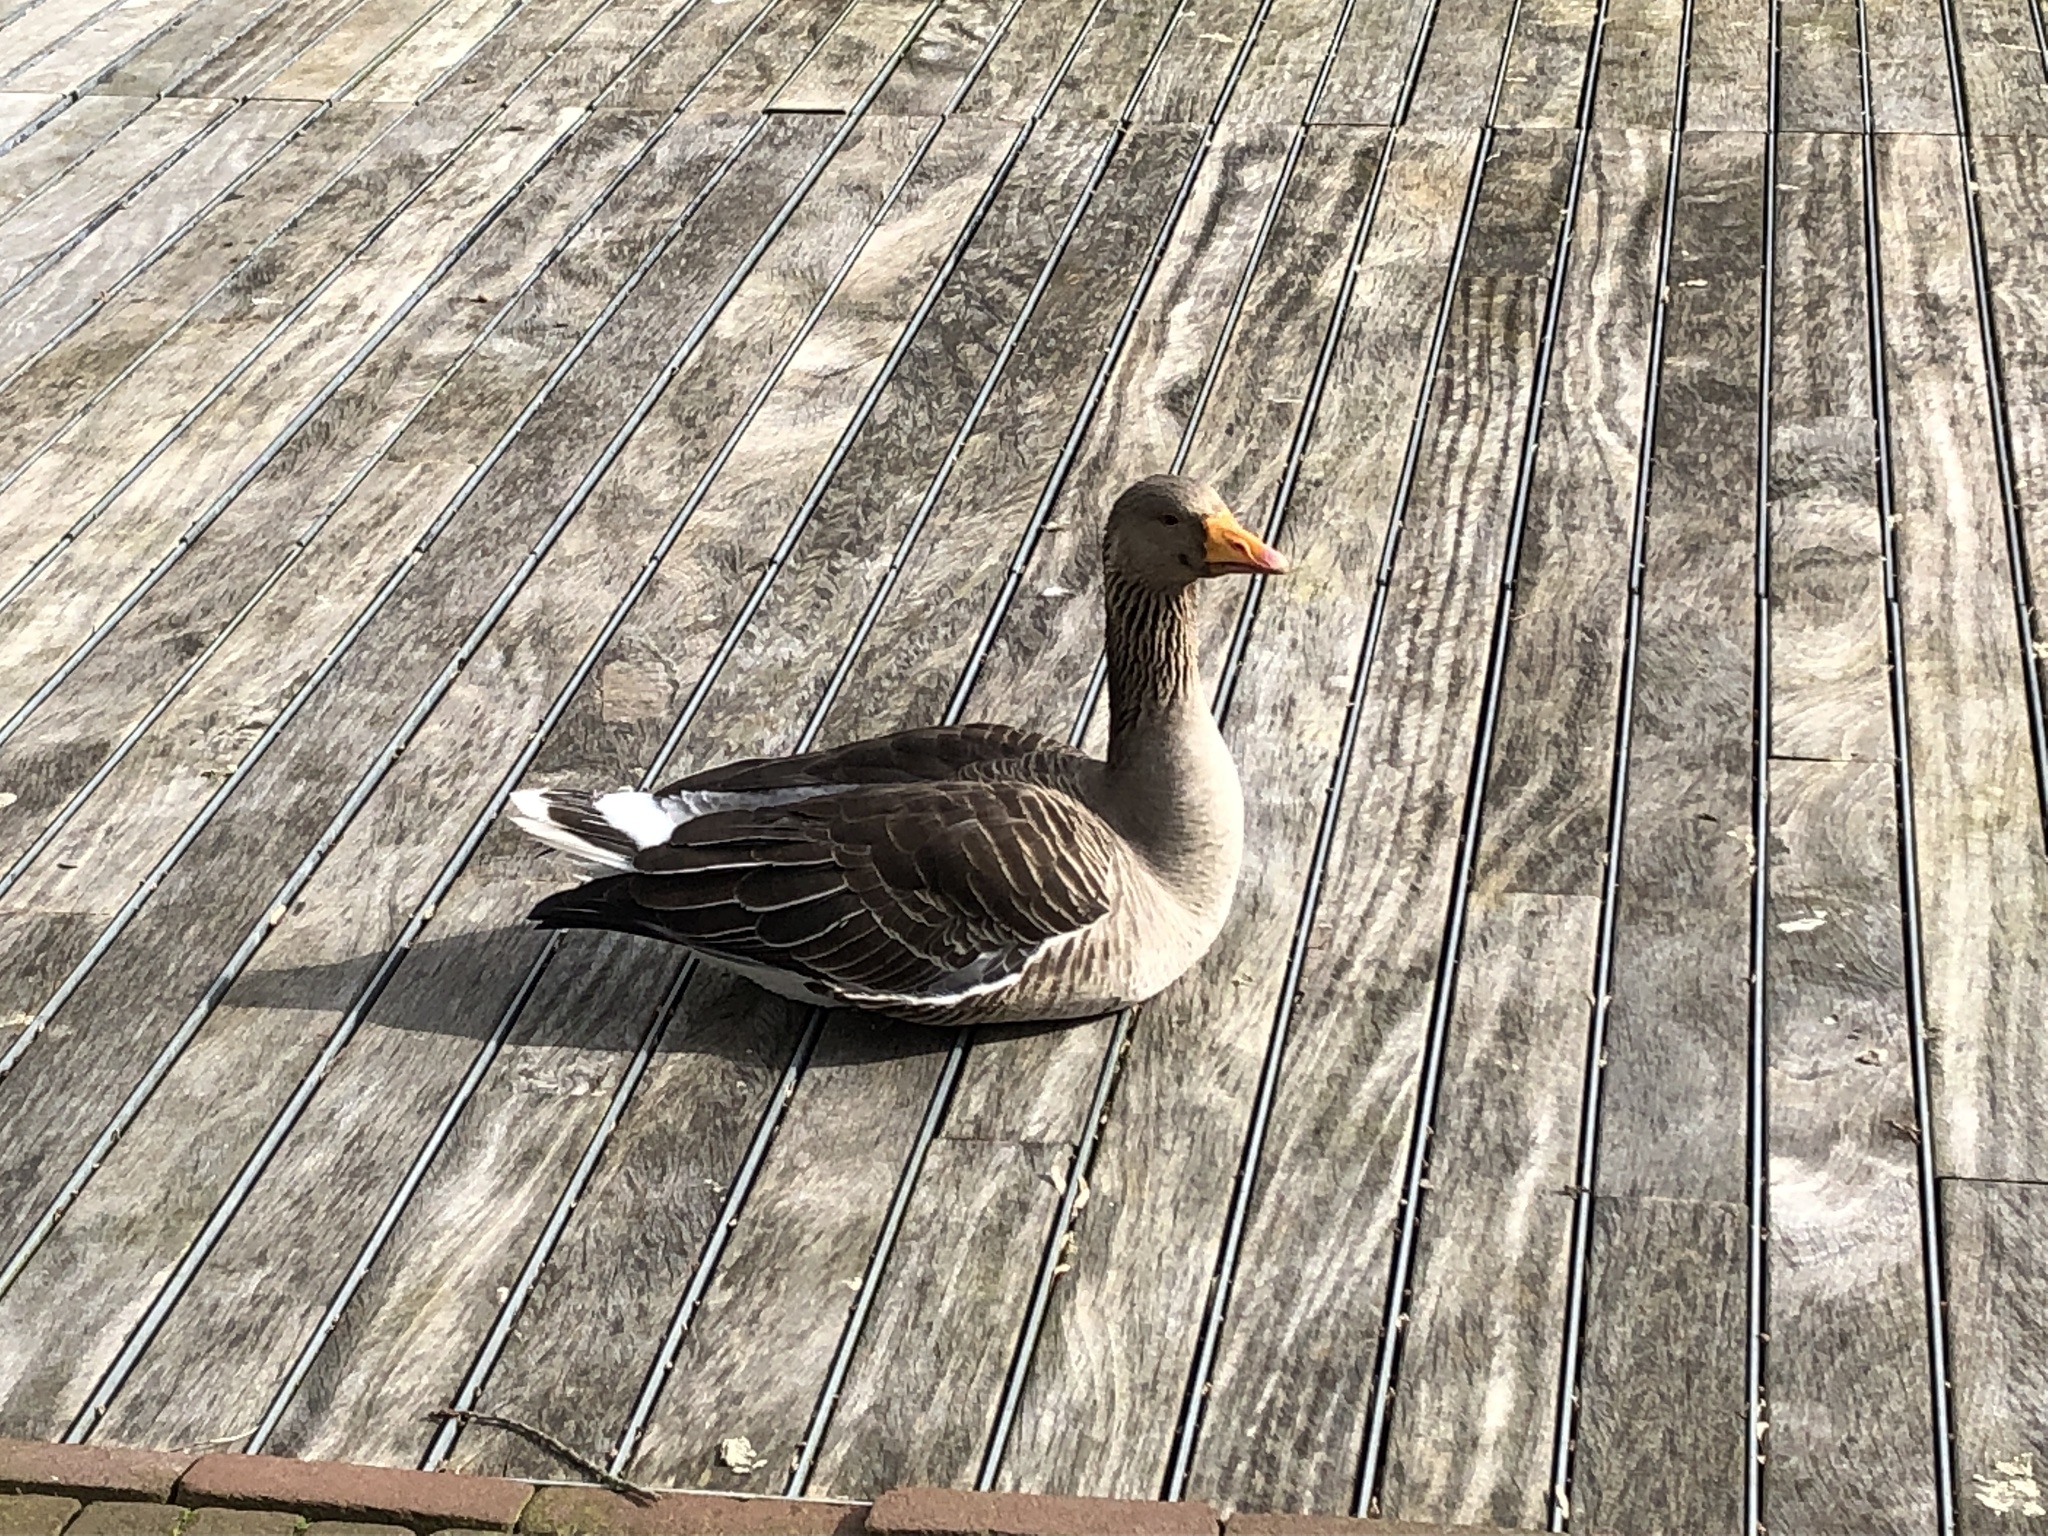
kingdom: Animalia
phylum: Chordata
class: Aves
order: Anseriformes
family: Anatidae
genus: Anser
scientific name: Anser anser
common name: Greylag goose
